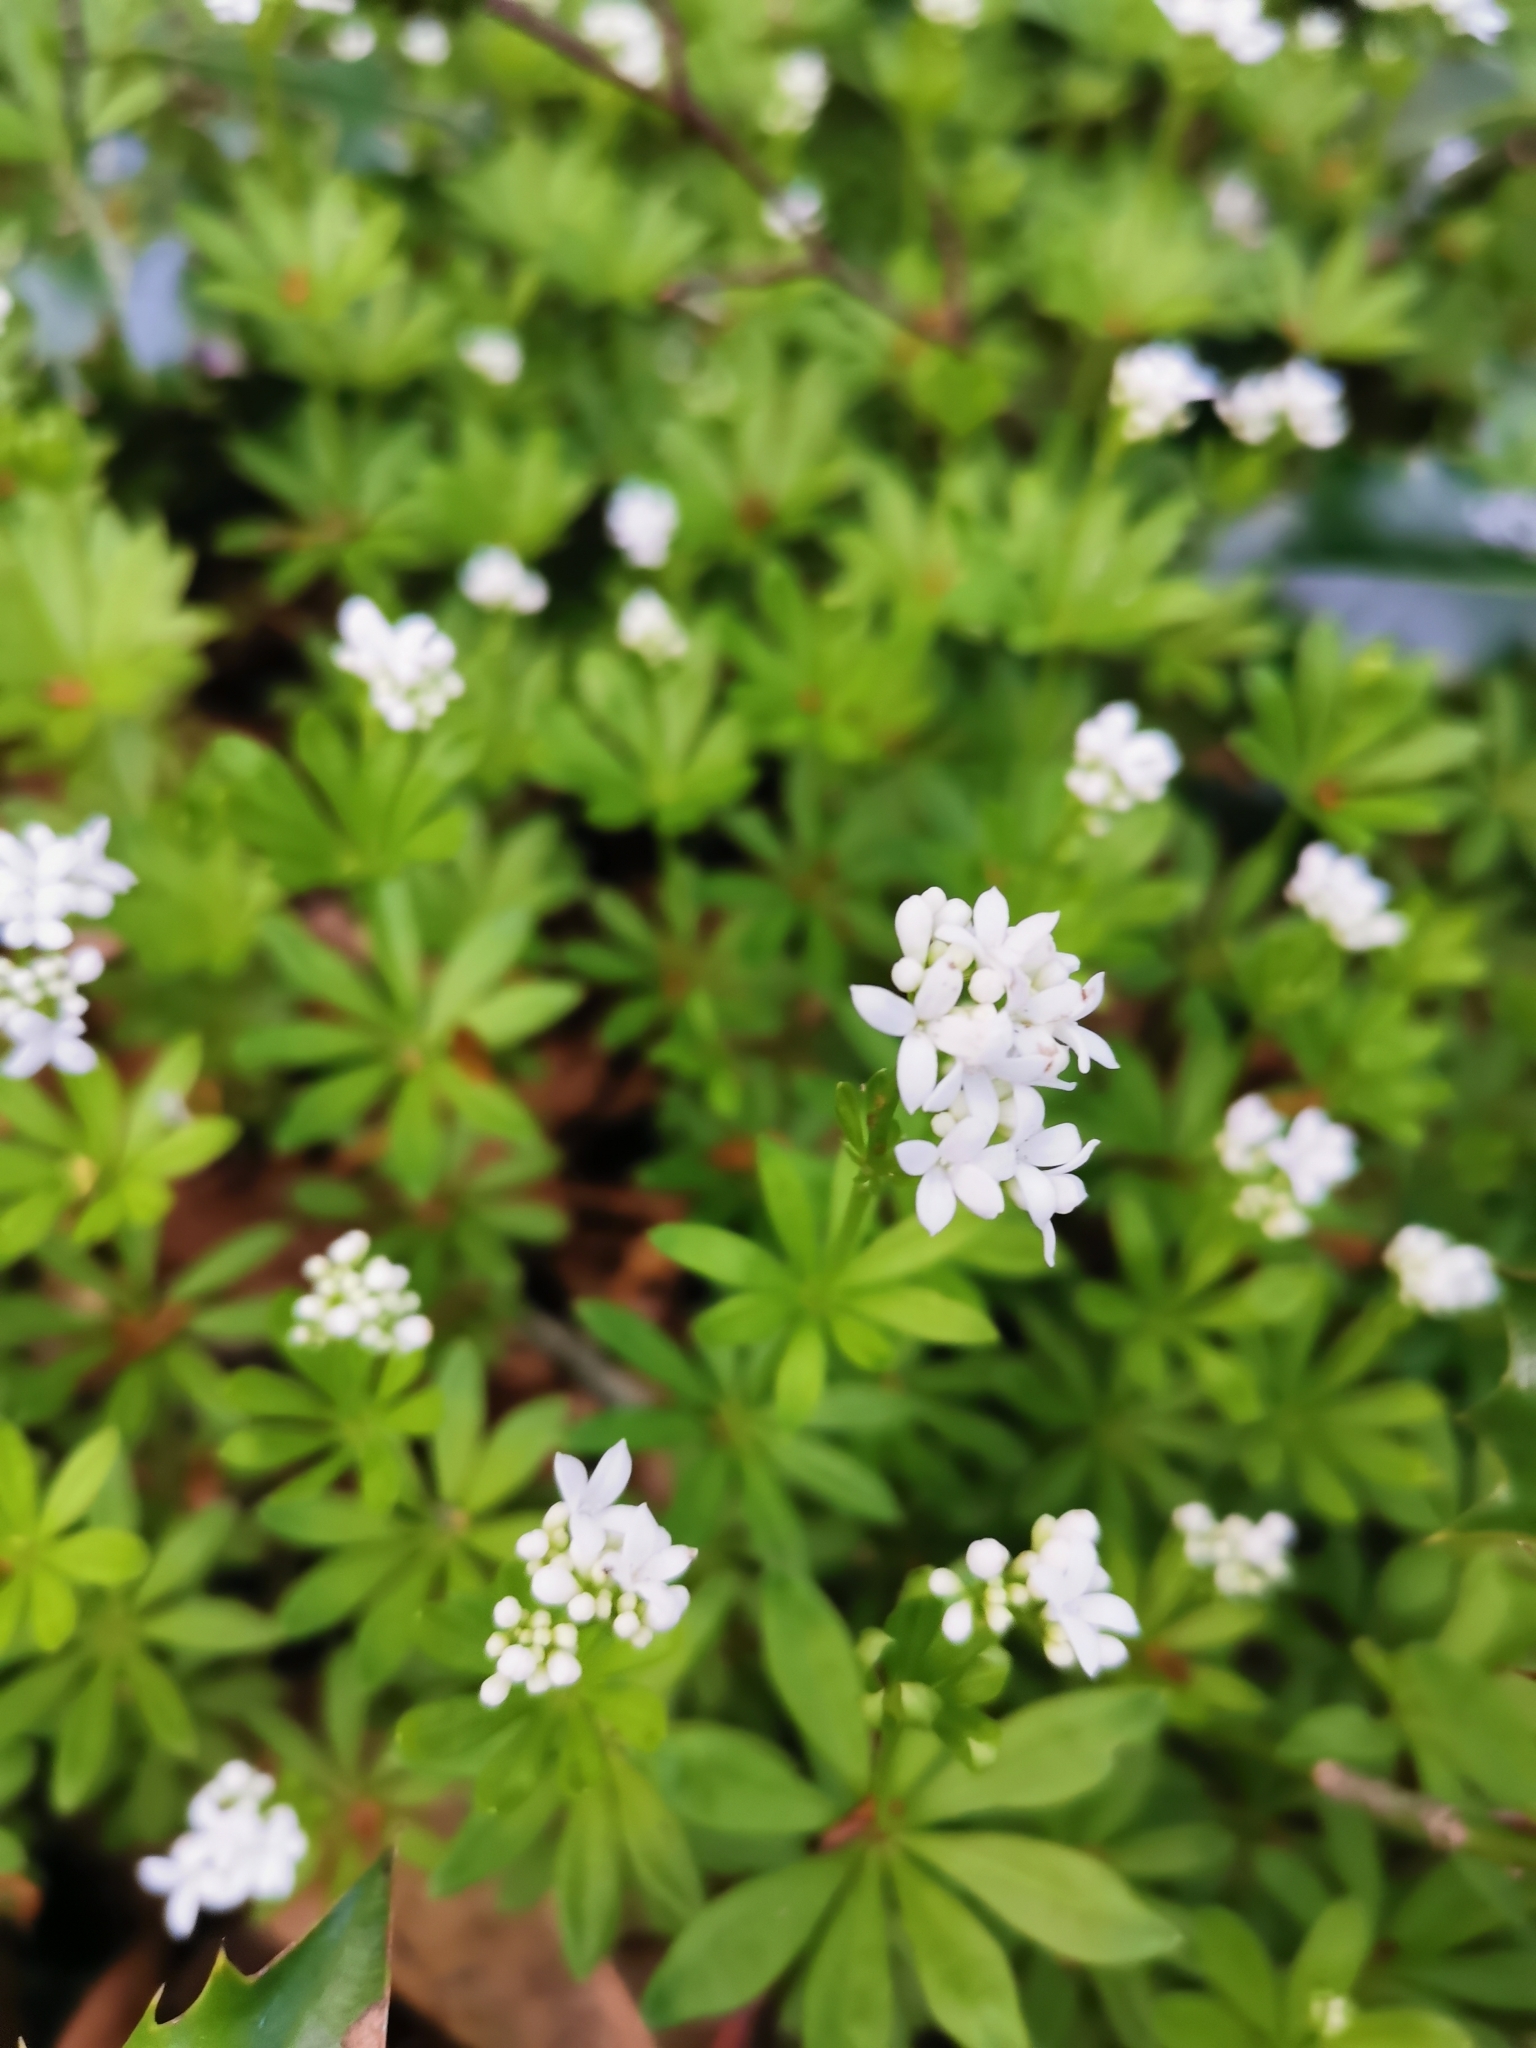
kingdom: Plantae
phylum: Tracheophyta
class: Magnoliopsida
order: Gentianales
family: Rubiaceae
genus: Galium
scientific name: Galium odoratum
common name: Sweet woodruff
